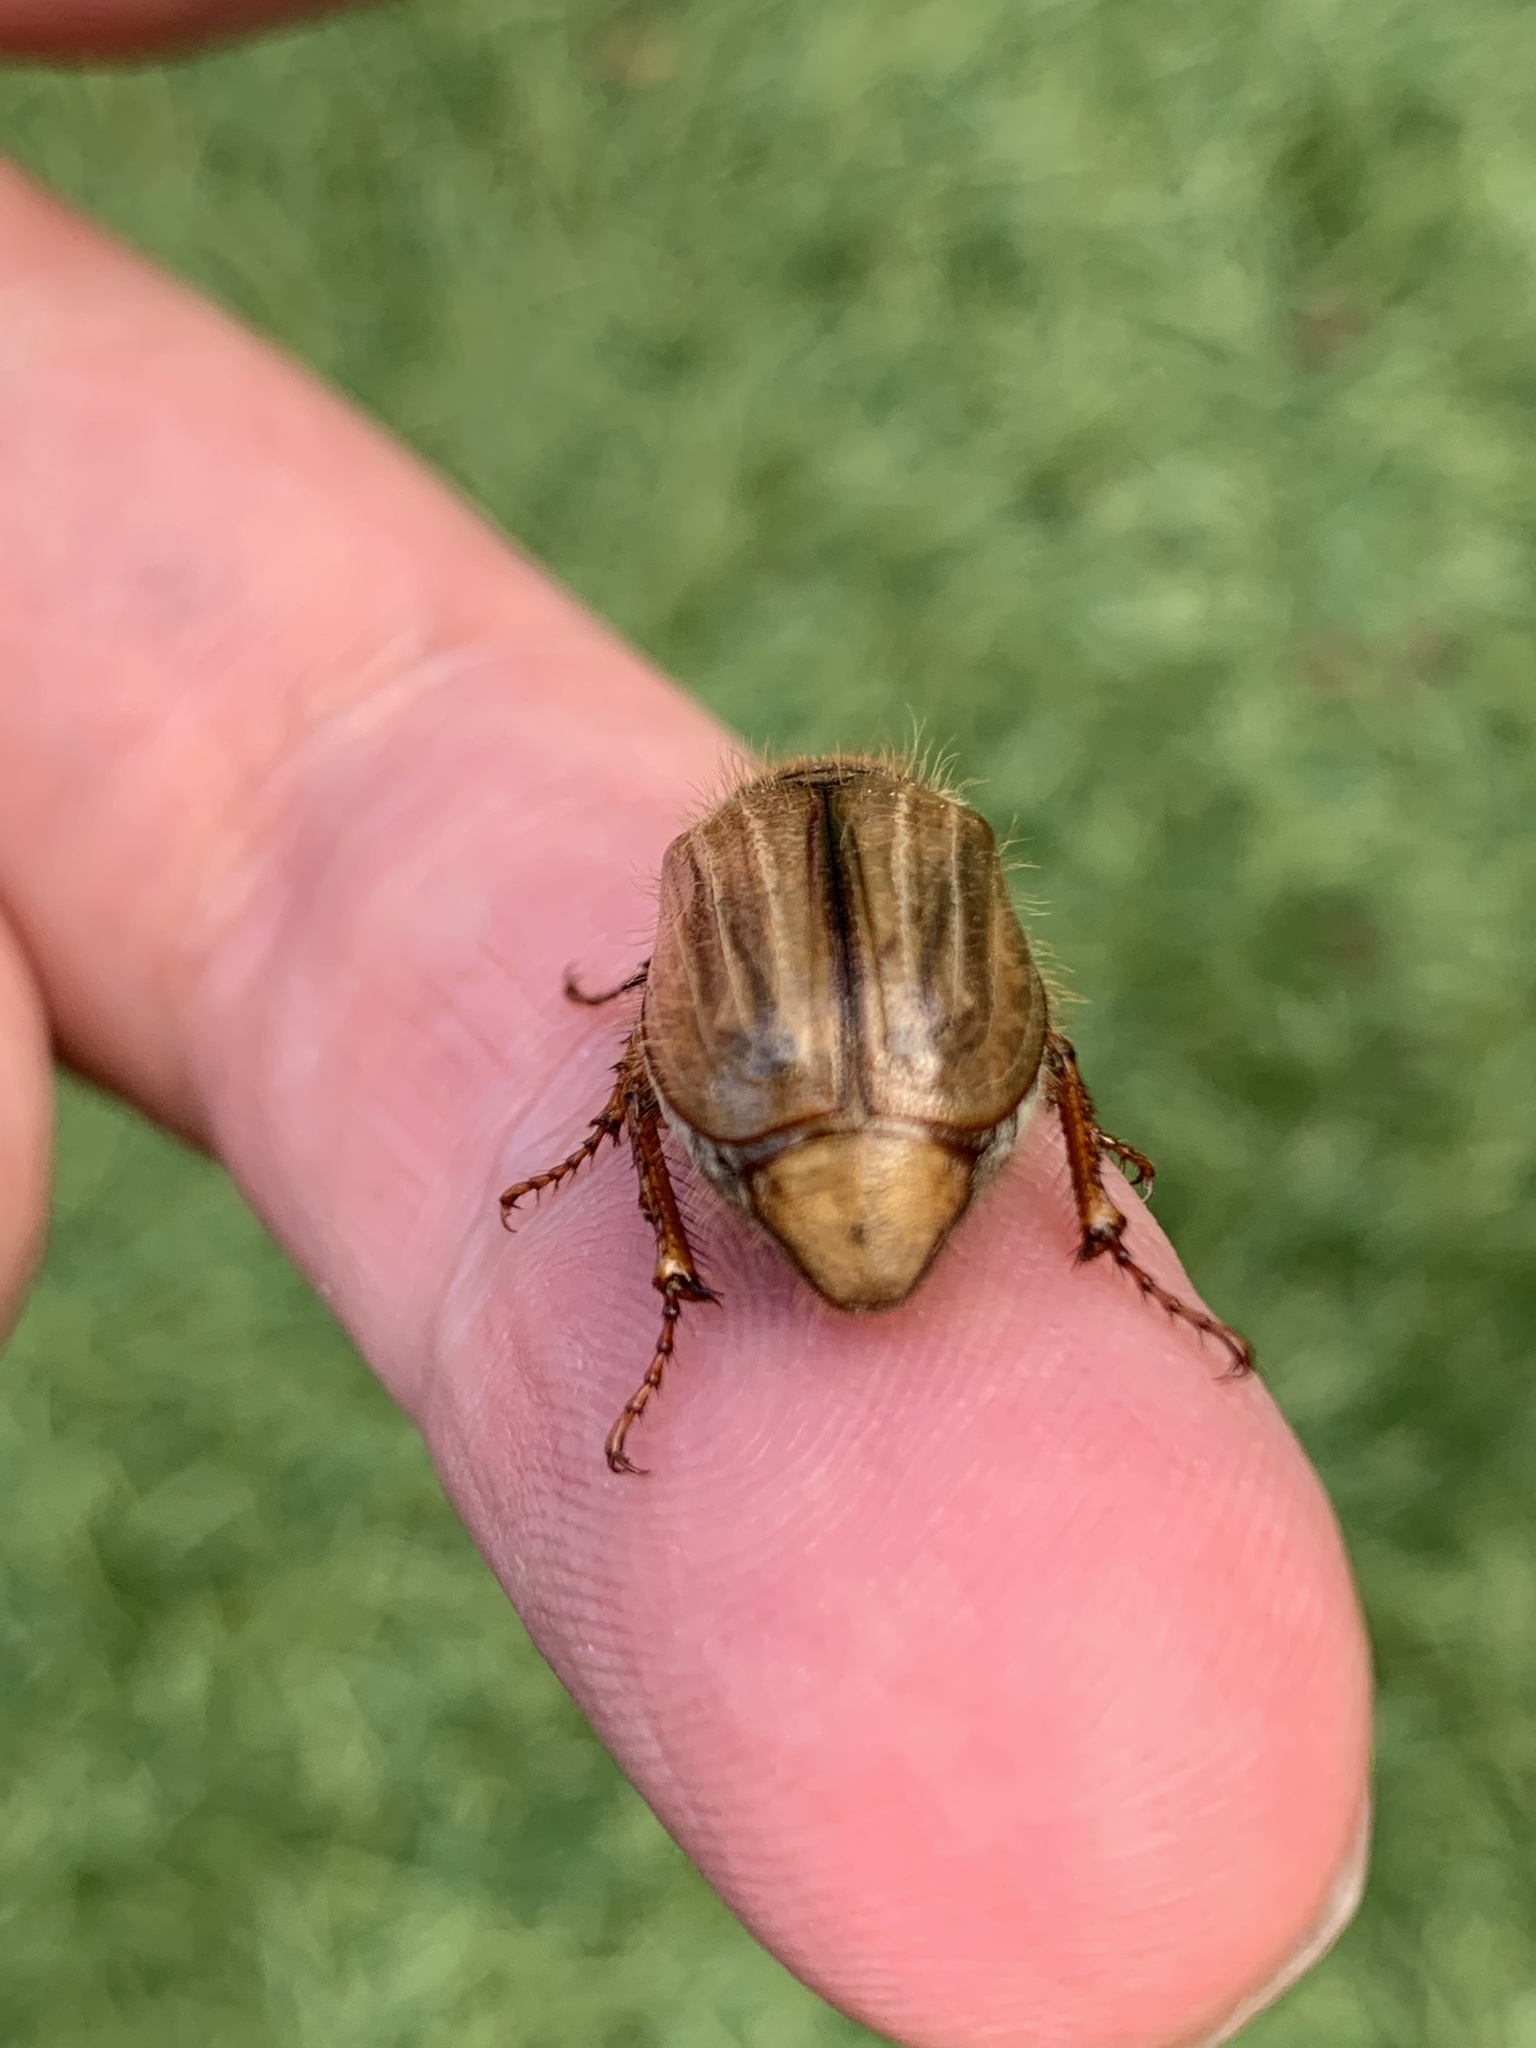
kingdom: Animalia
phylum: Arthropoda
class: Insecta
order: Coleoptera
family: Scarabaeidae
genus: Amphimallon
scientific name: Amphimallon solstitiale
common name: Summer chafer
